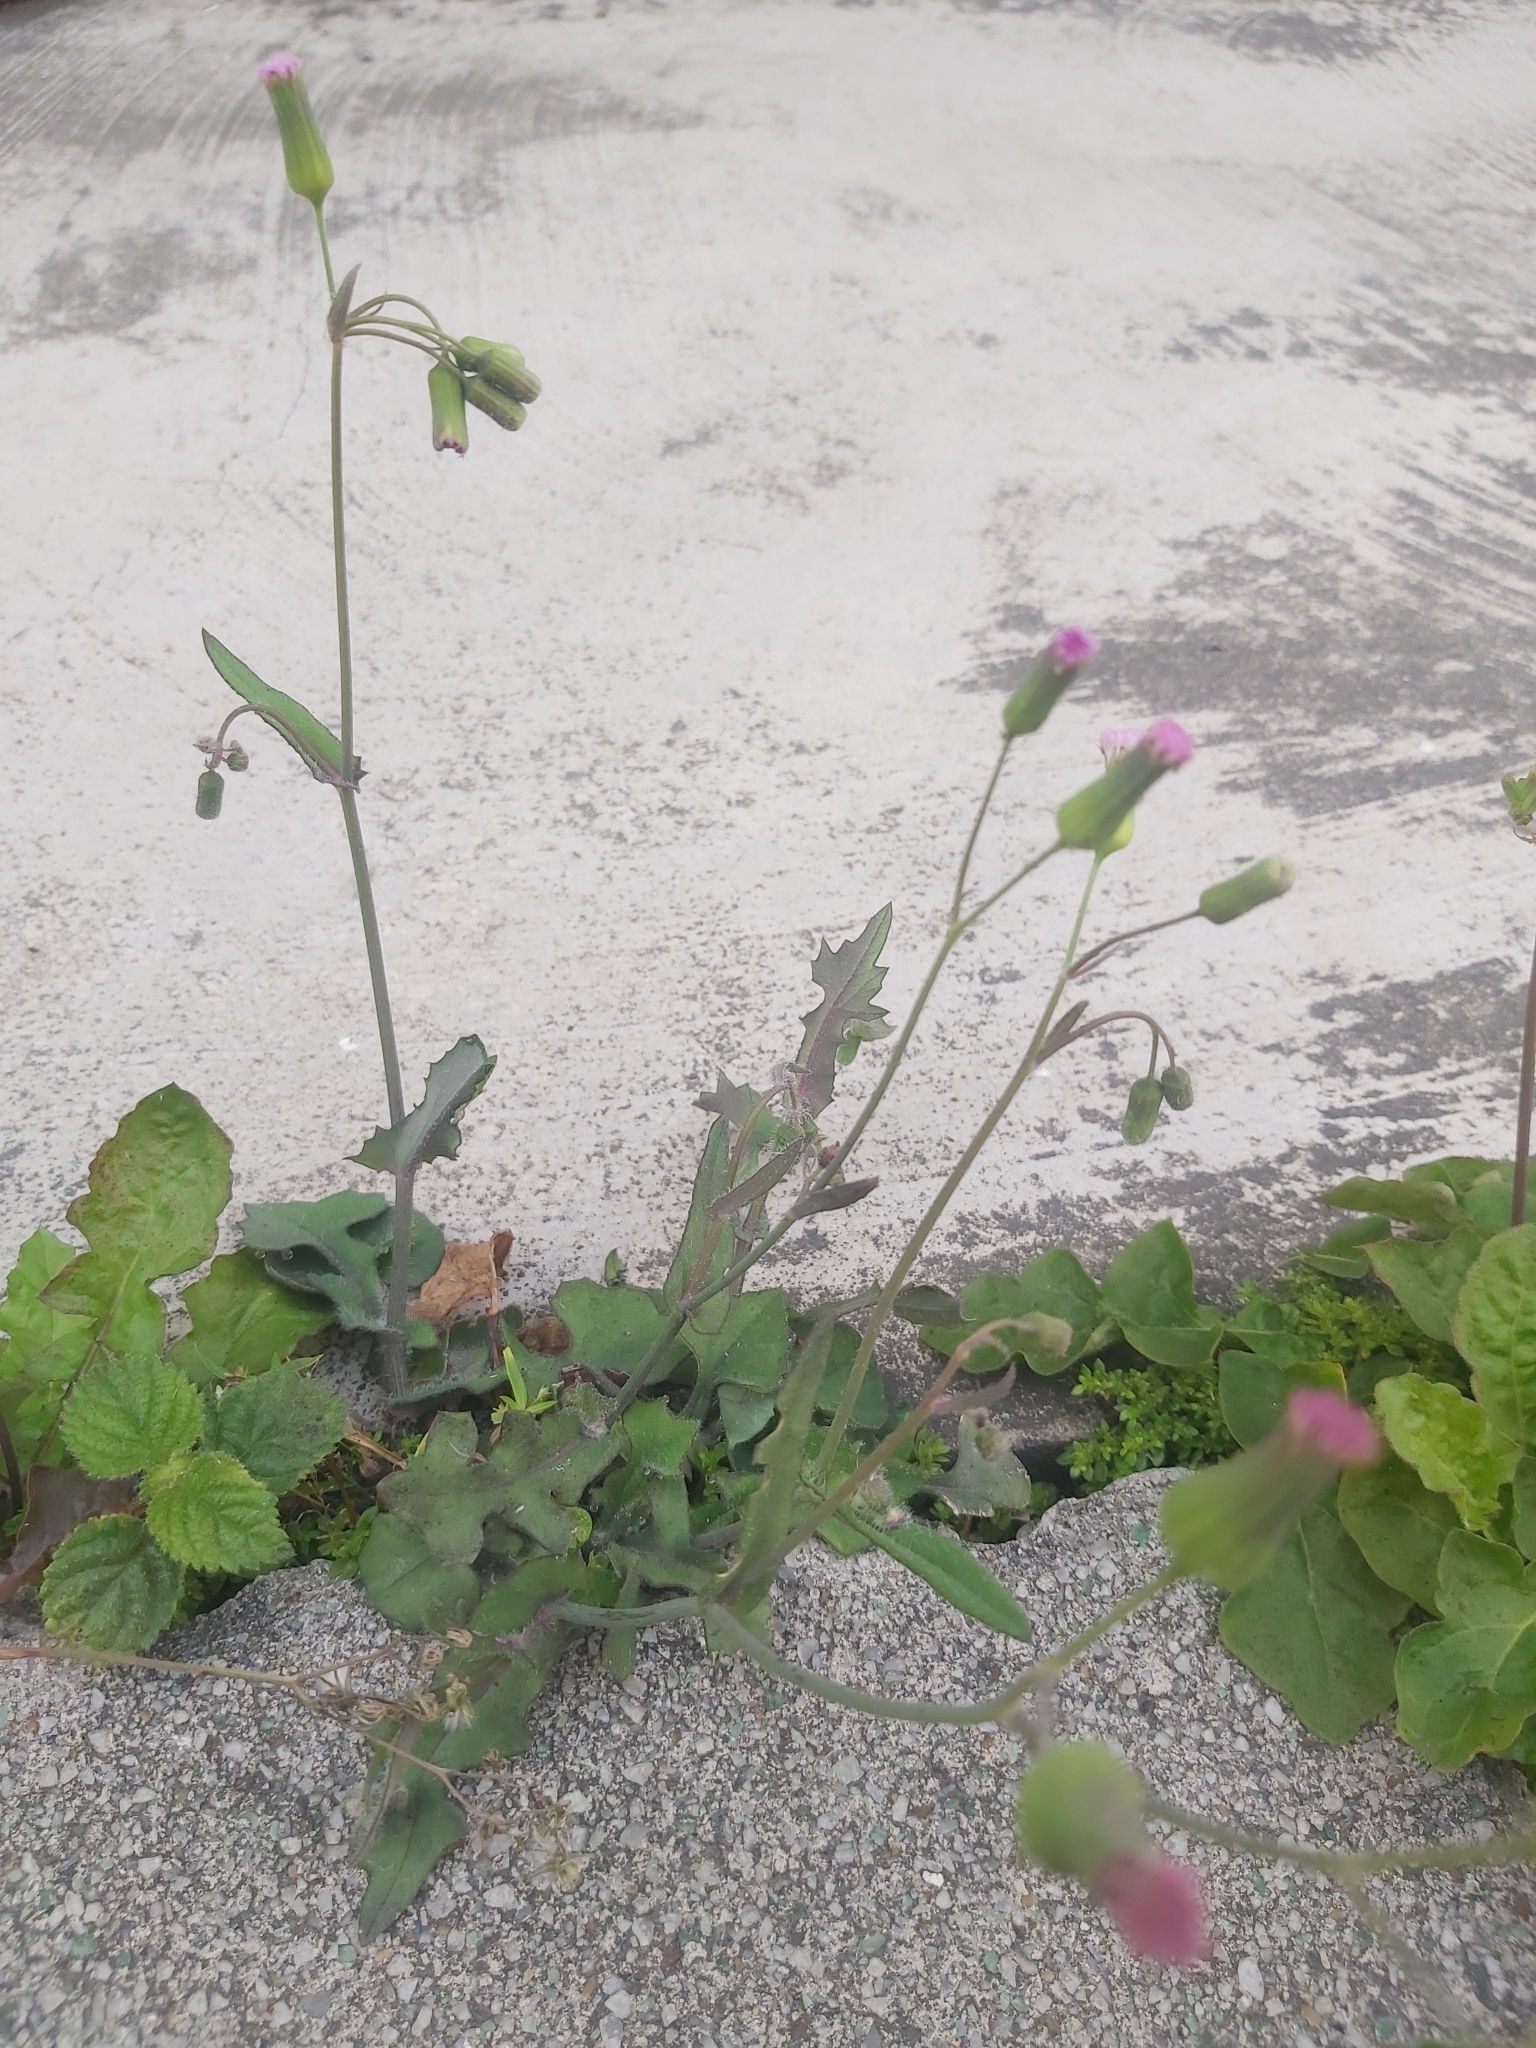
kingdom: Plantae
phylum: Tracheophyta
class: Magnoliopsida
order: Asterales
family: Asteraceae
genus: Emilia
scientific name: Emilia javanica
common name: Tassel-flower
